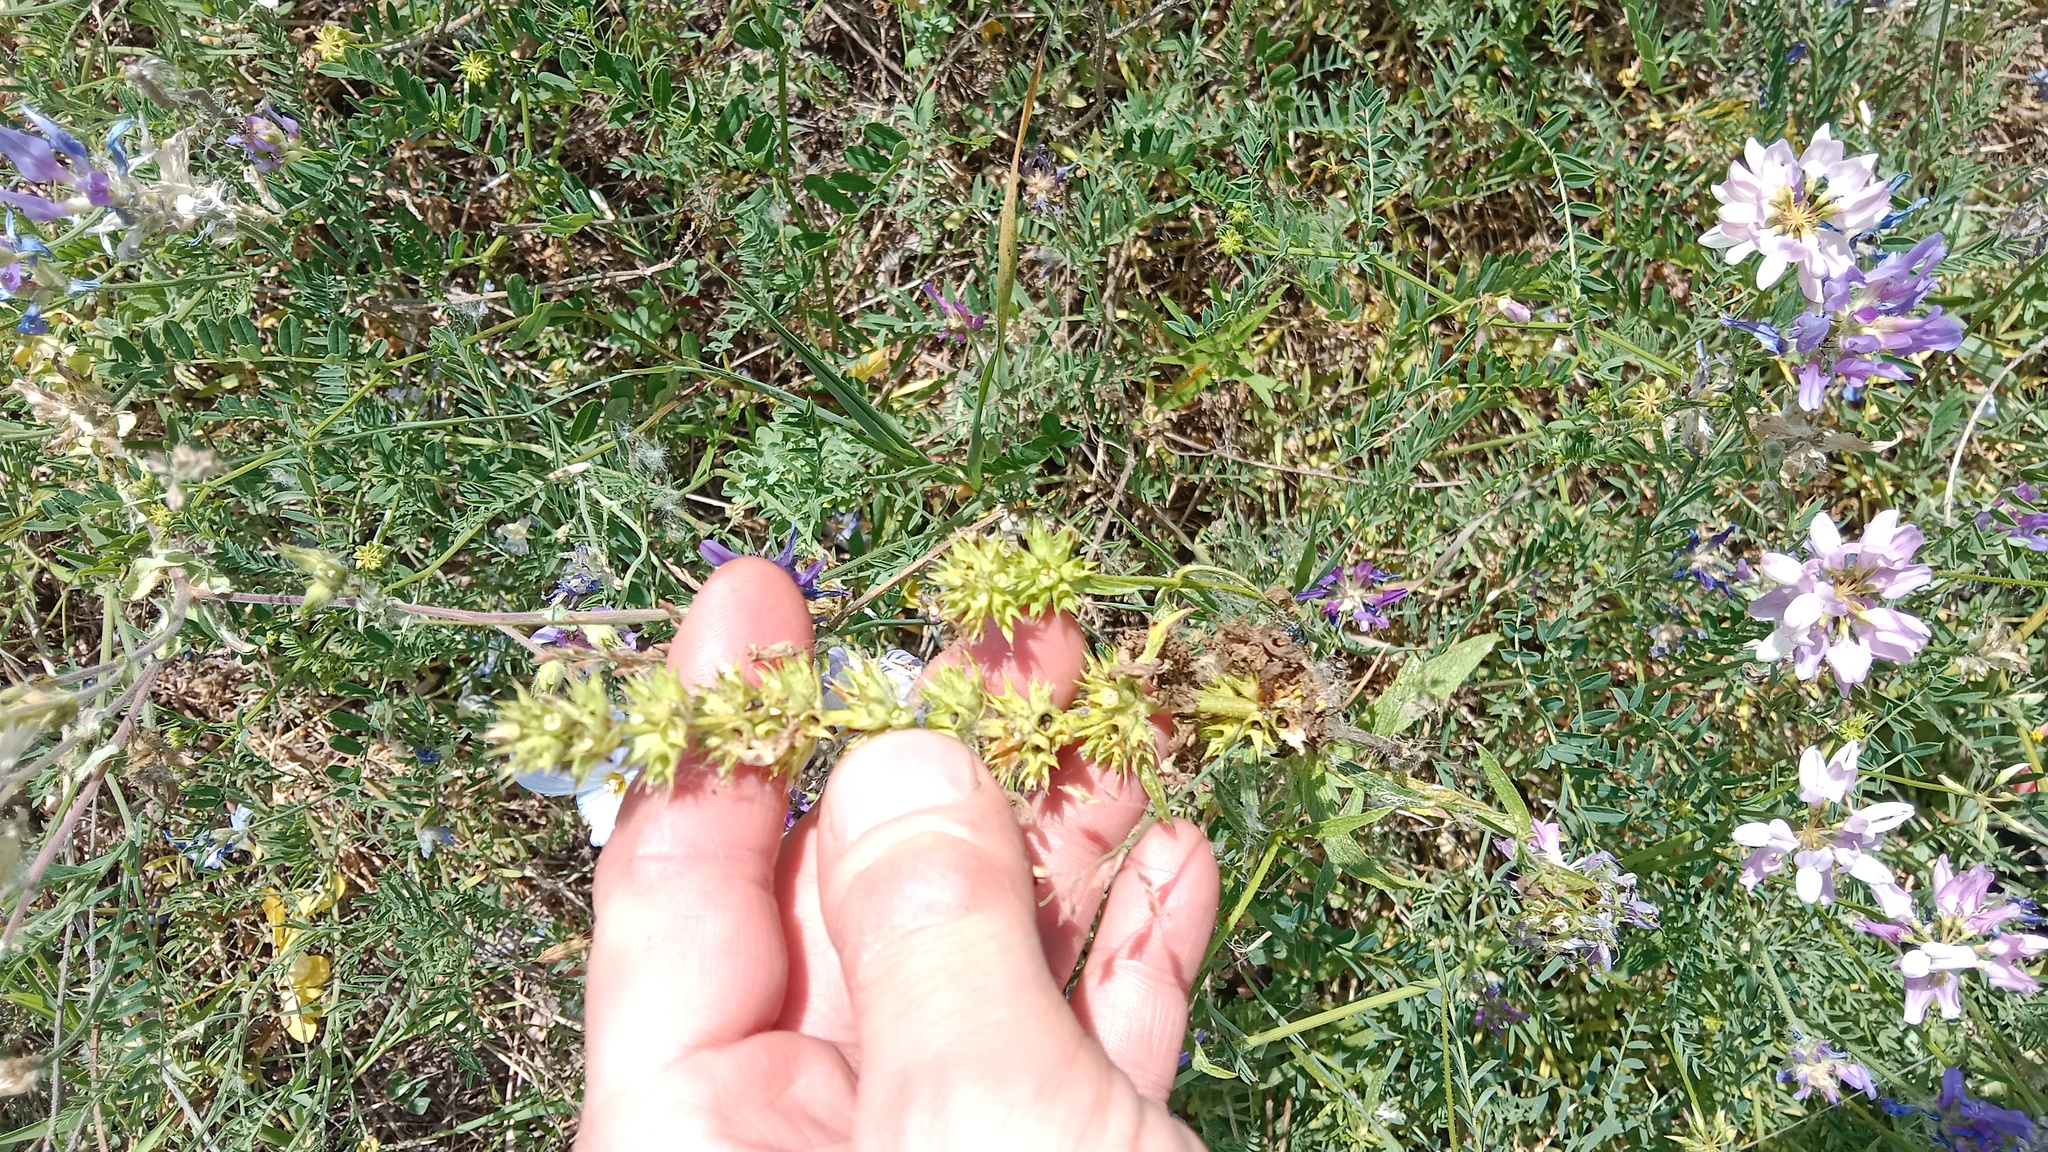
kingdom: Plantae
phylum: Tracheophyta
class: Magnoliopsida
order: Lamiales
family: Lamiaceae
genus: Stachys
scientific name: Stachys recta
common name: Perennial yellow-woundwort
